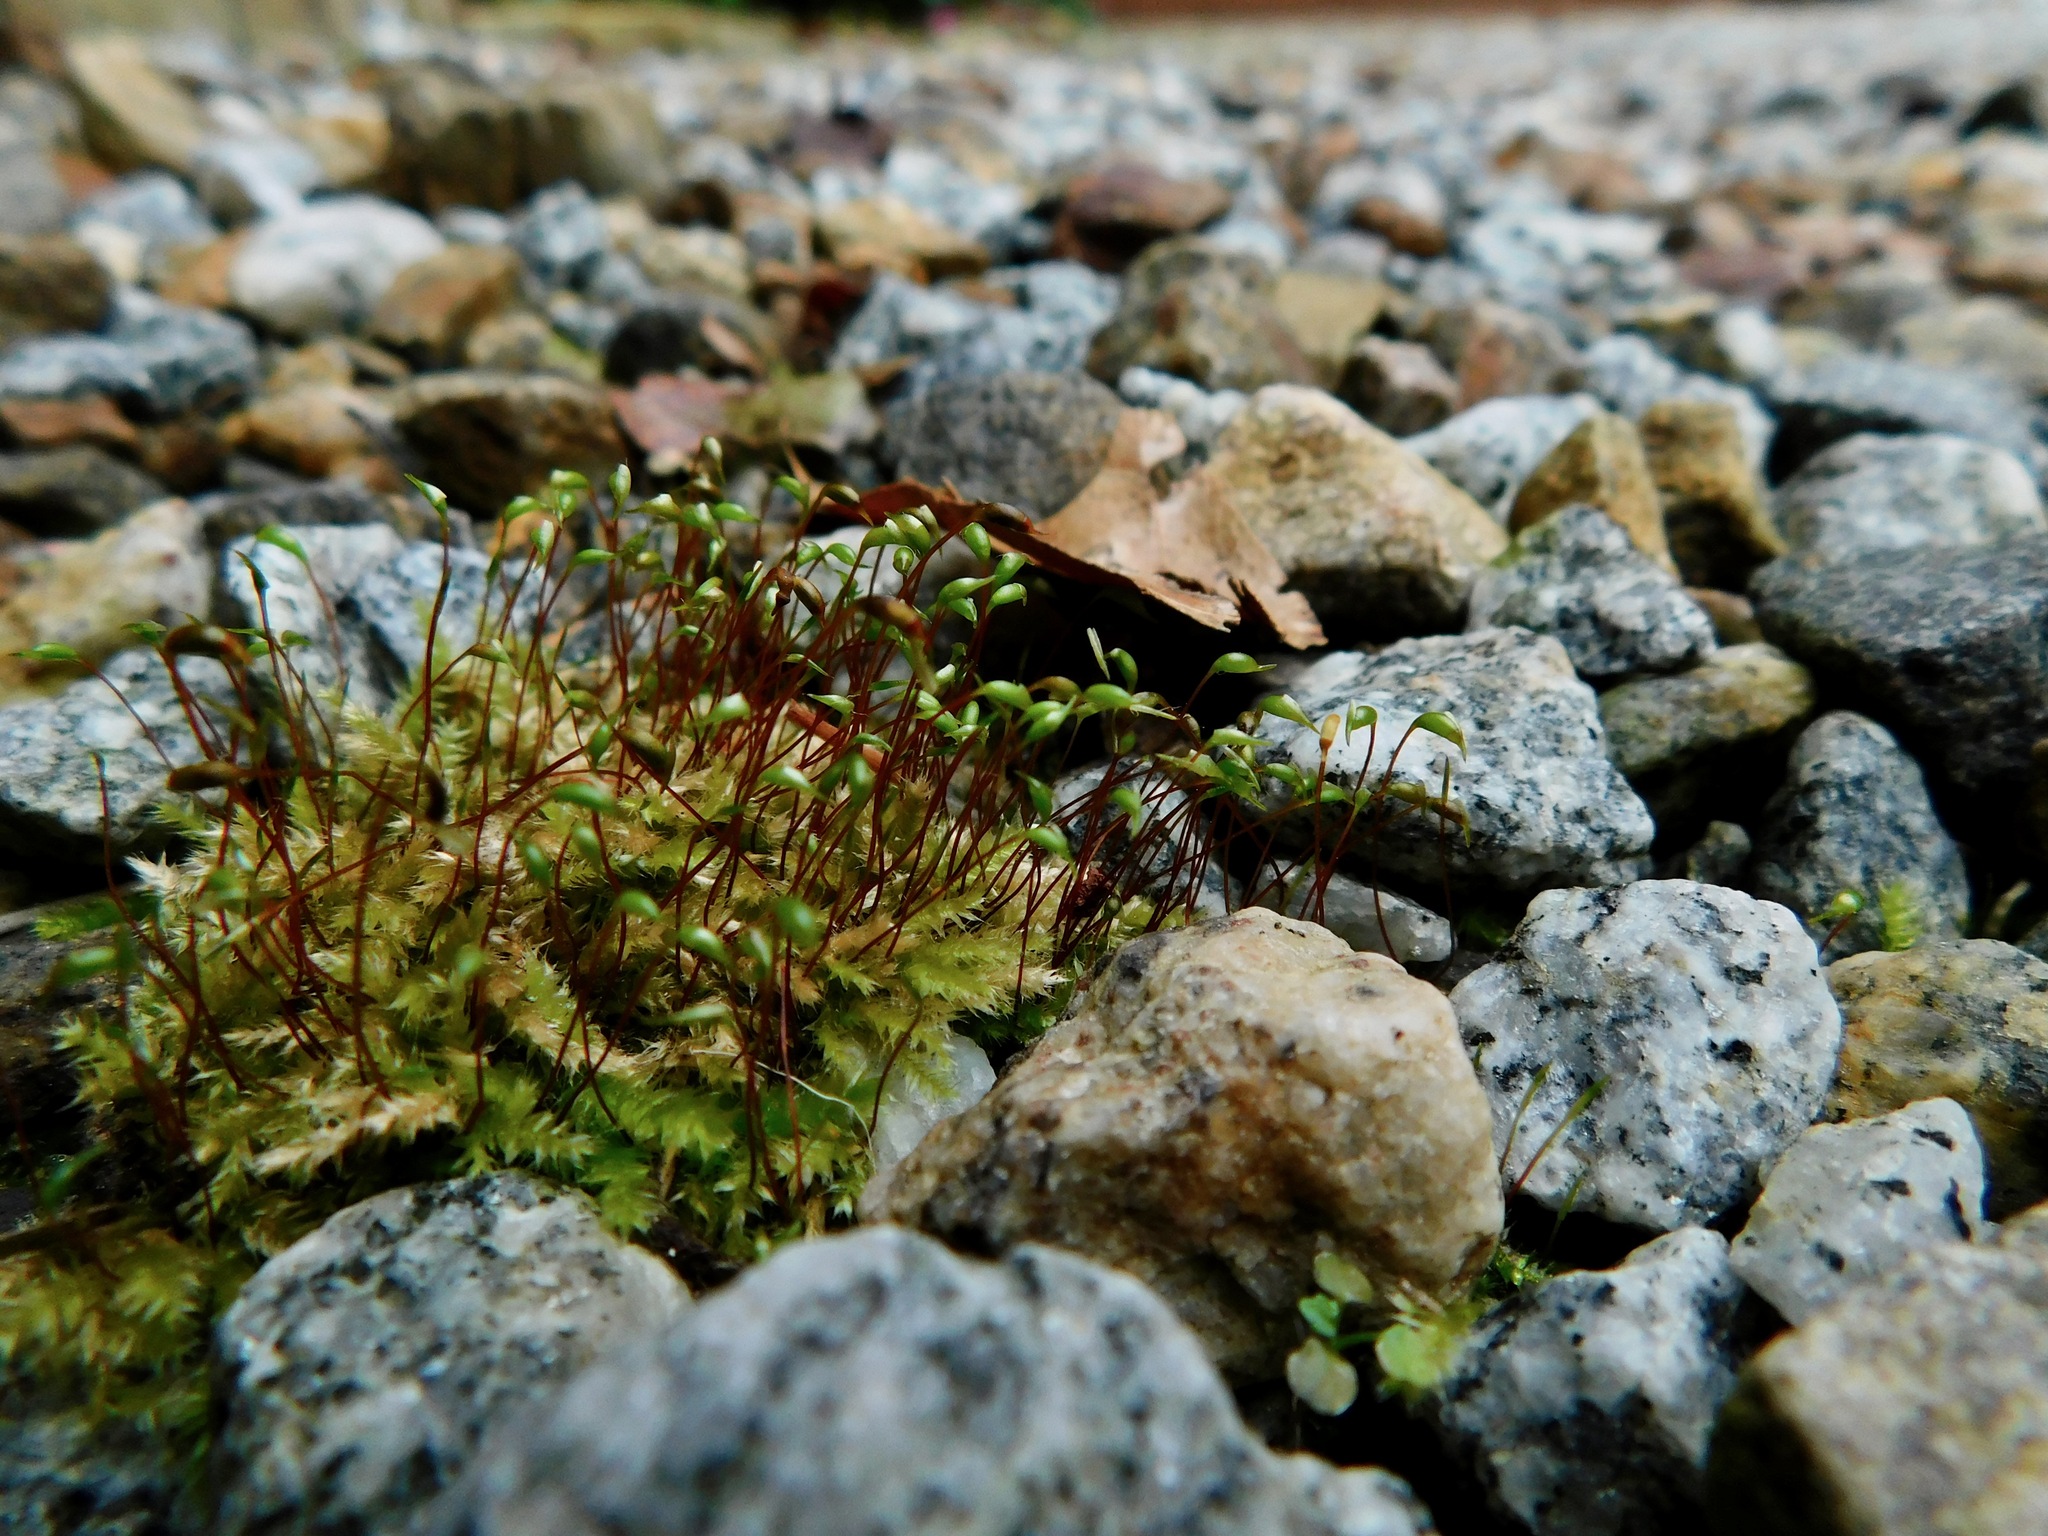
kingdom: Plantae
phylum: Bryophyta
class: Bryopsida
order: Hypnales
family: Brachytheciaceae
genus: Rhynchostegium
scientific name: Rhynchostegium confertum
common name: Clustered feather-moss
